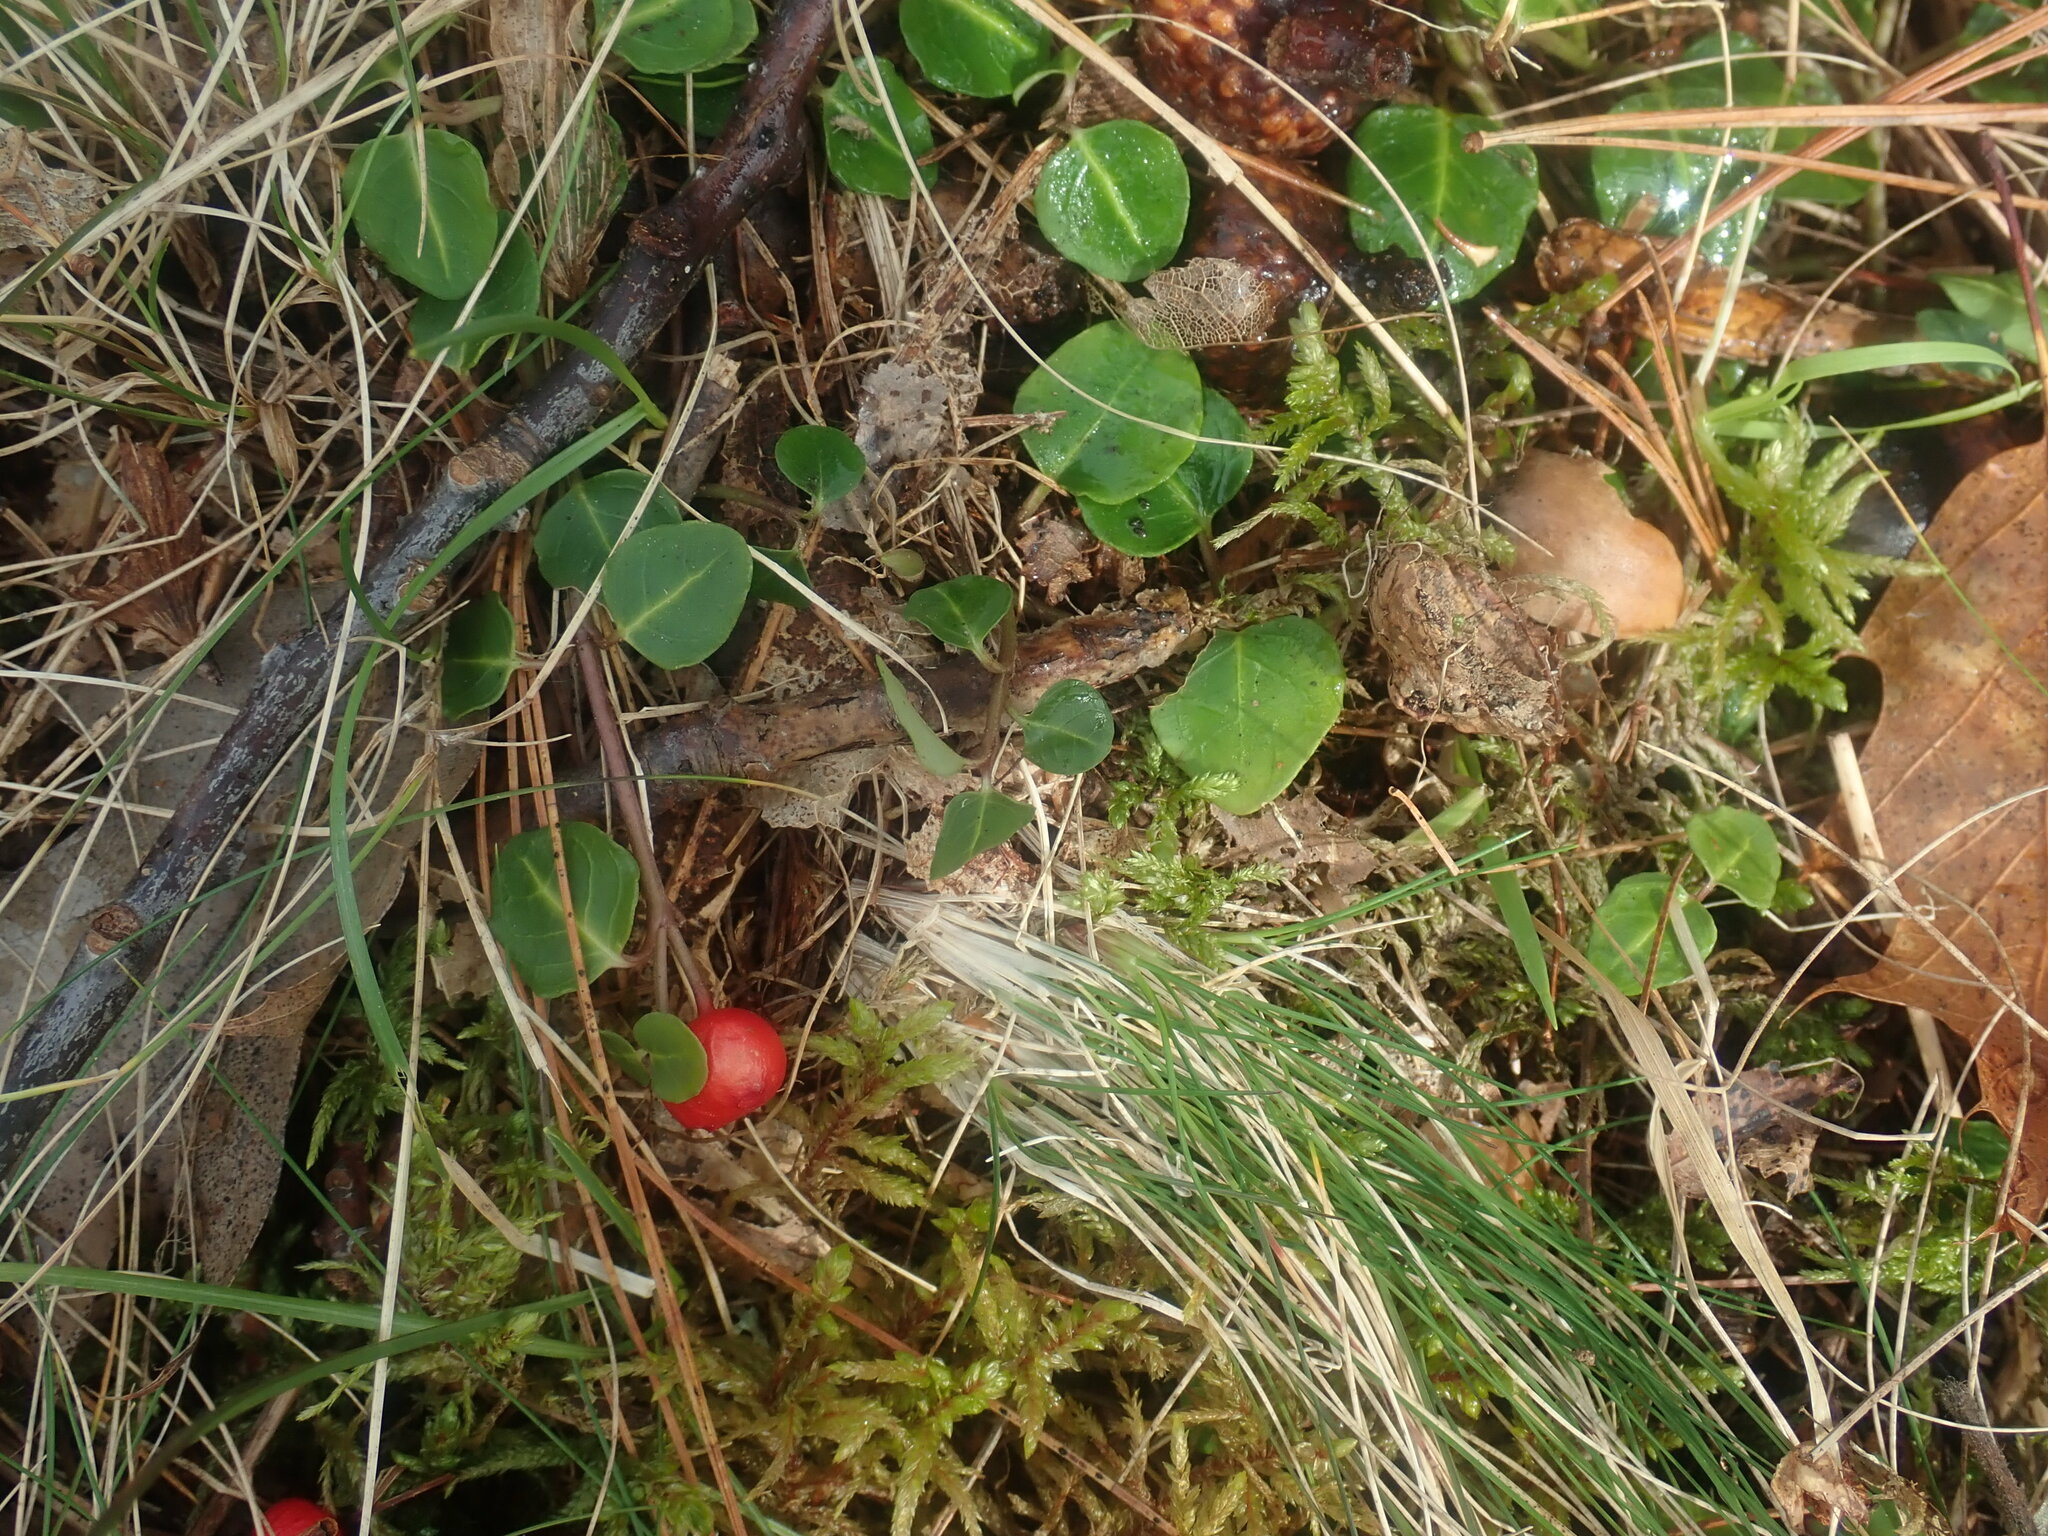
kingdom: Plantae
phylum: Tracheophyta
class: Magnoliopsida
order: Gentianales
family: Rubiaceae
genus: Mitchella
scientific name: Mitchella repens
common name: Partridge-berry
